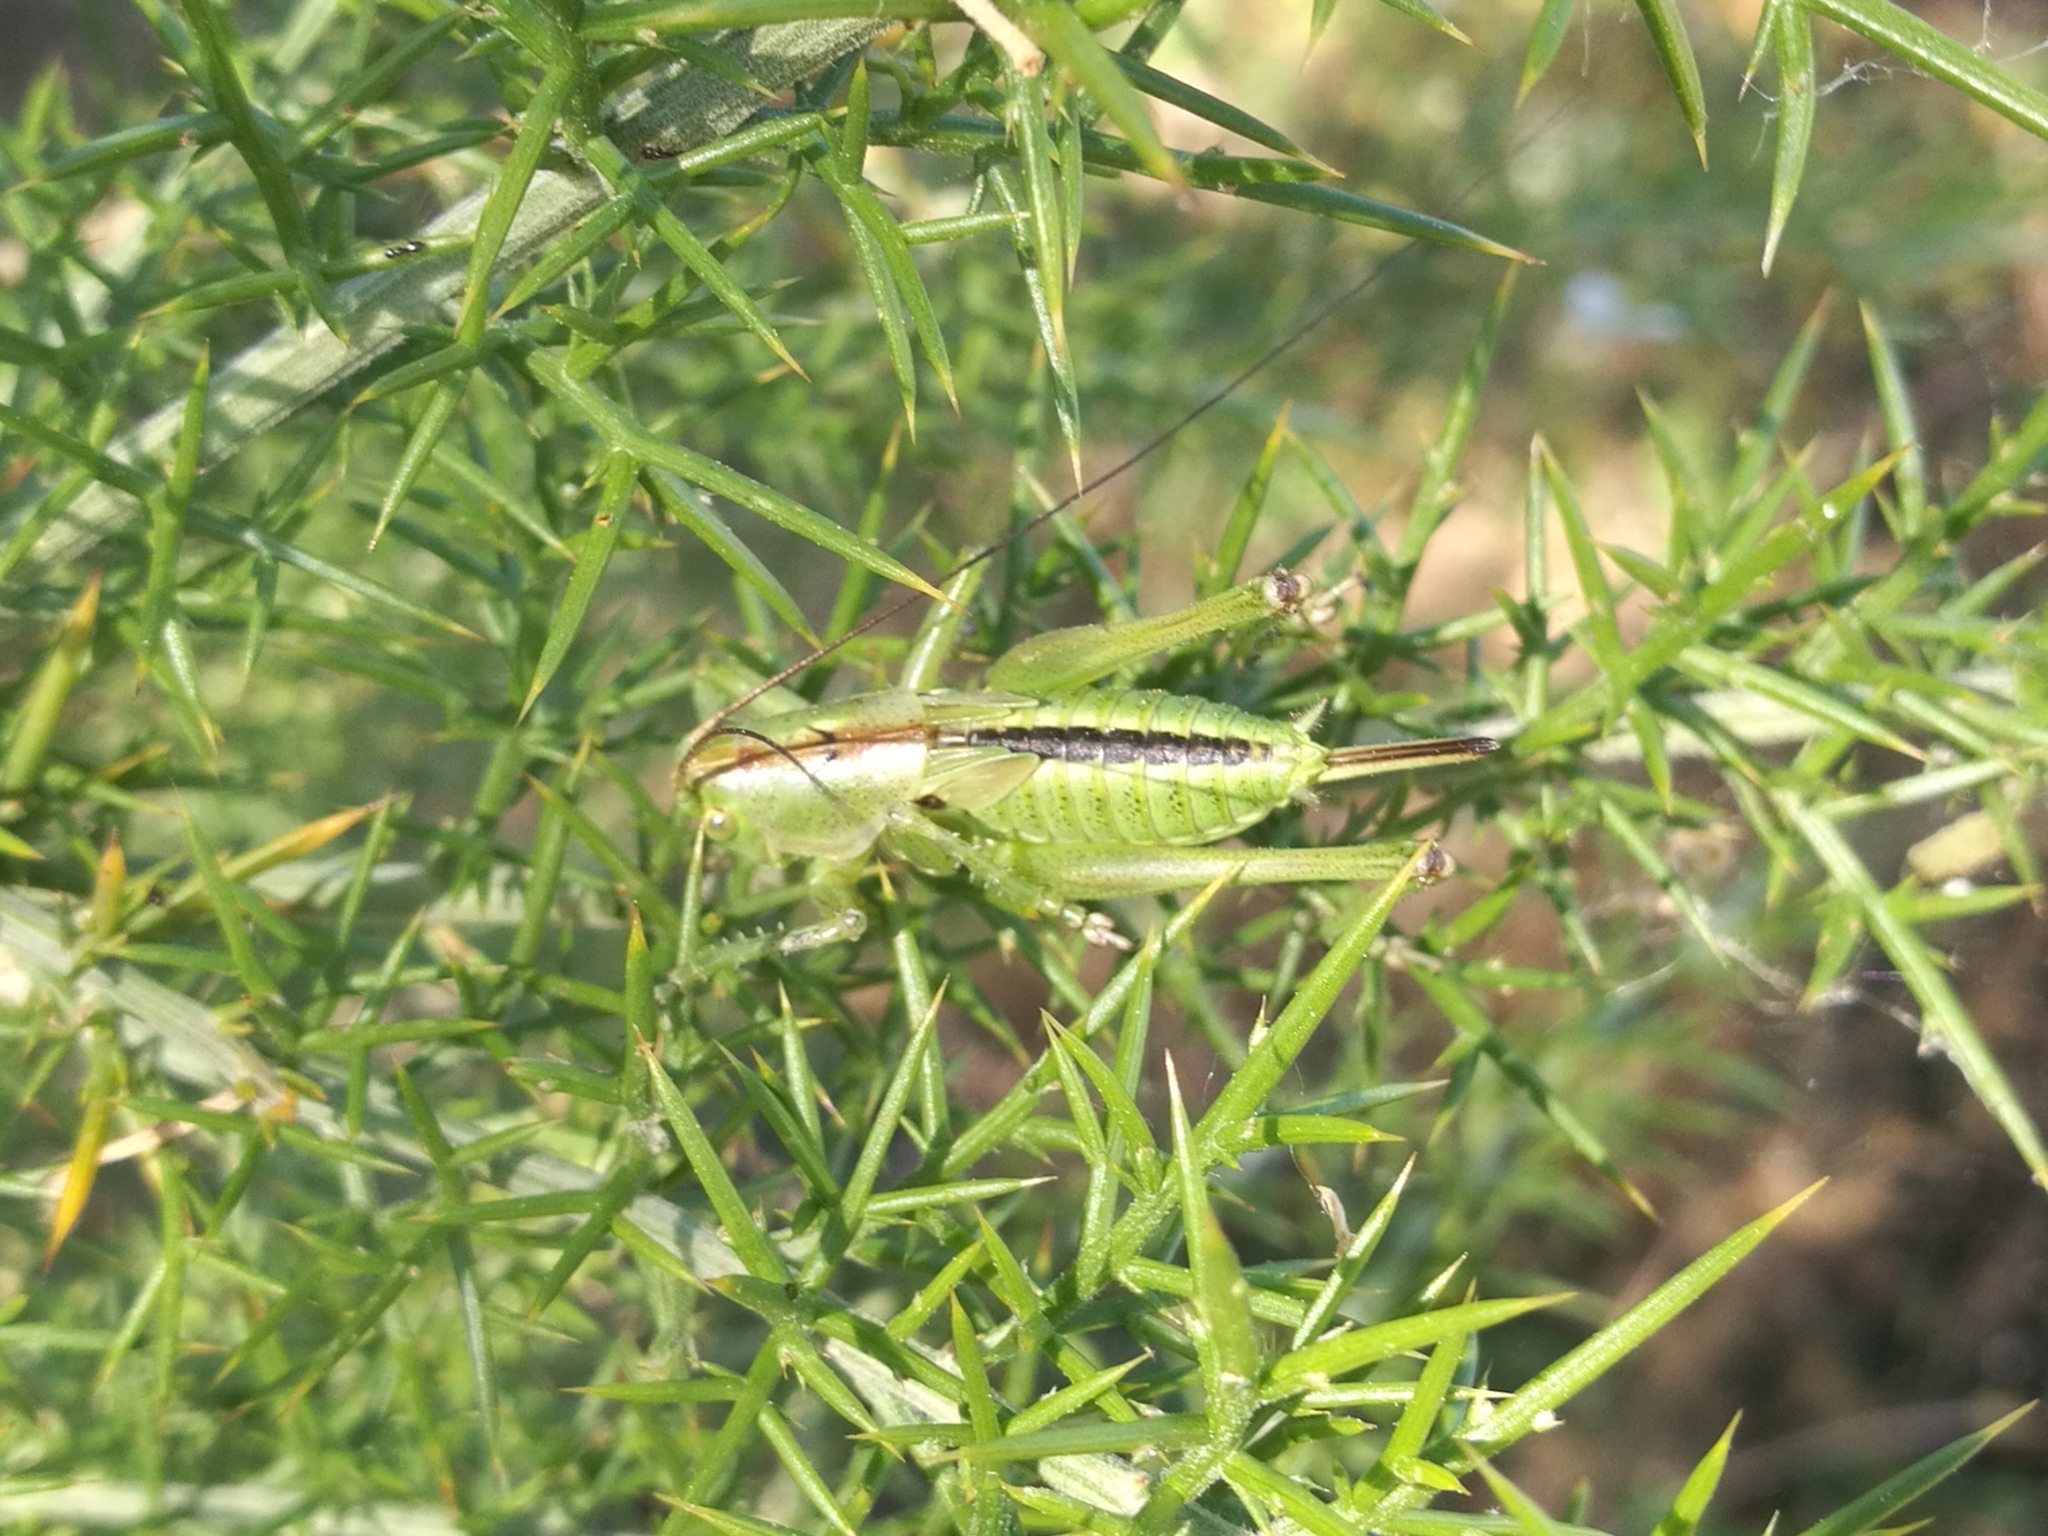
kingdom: Animalia
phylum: Arthropoda
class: Insecta
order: Orthoptera
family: Tettigoniidae
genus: Tettigonia
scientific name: Tettigonia viridissima
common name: Great green bush-cricket
